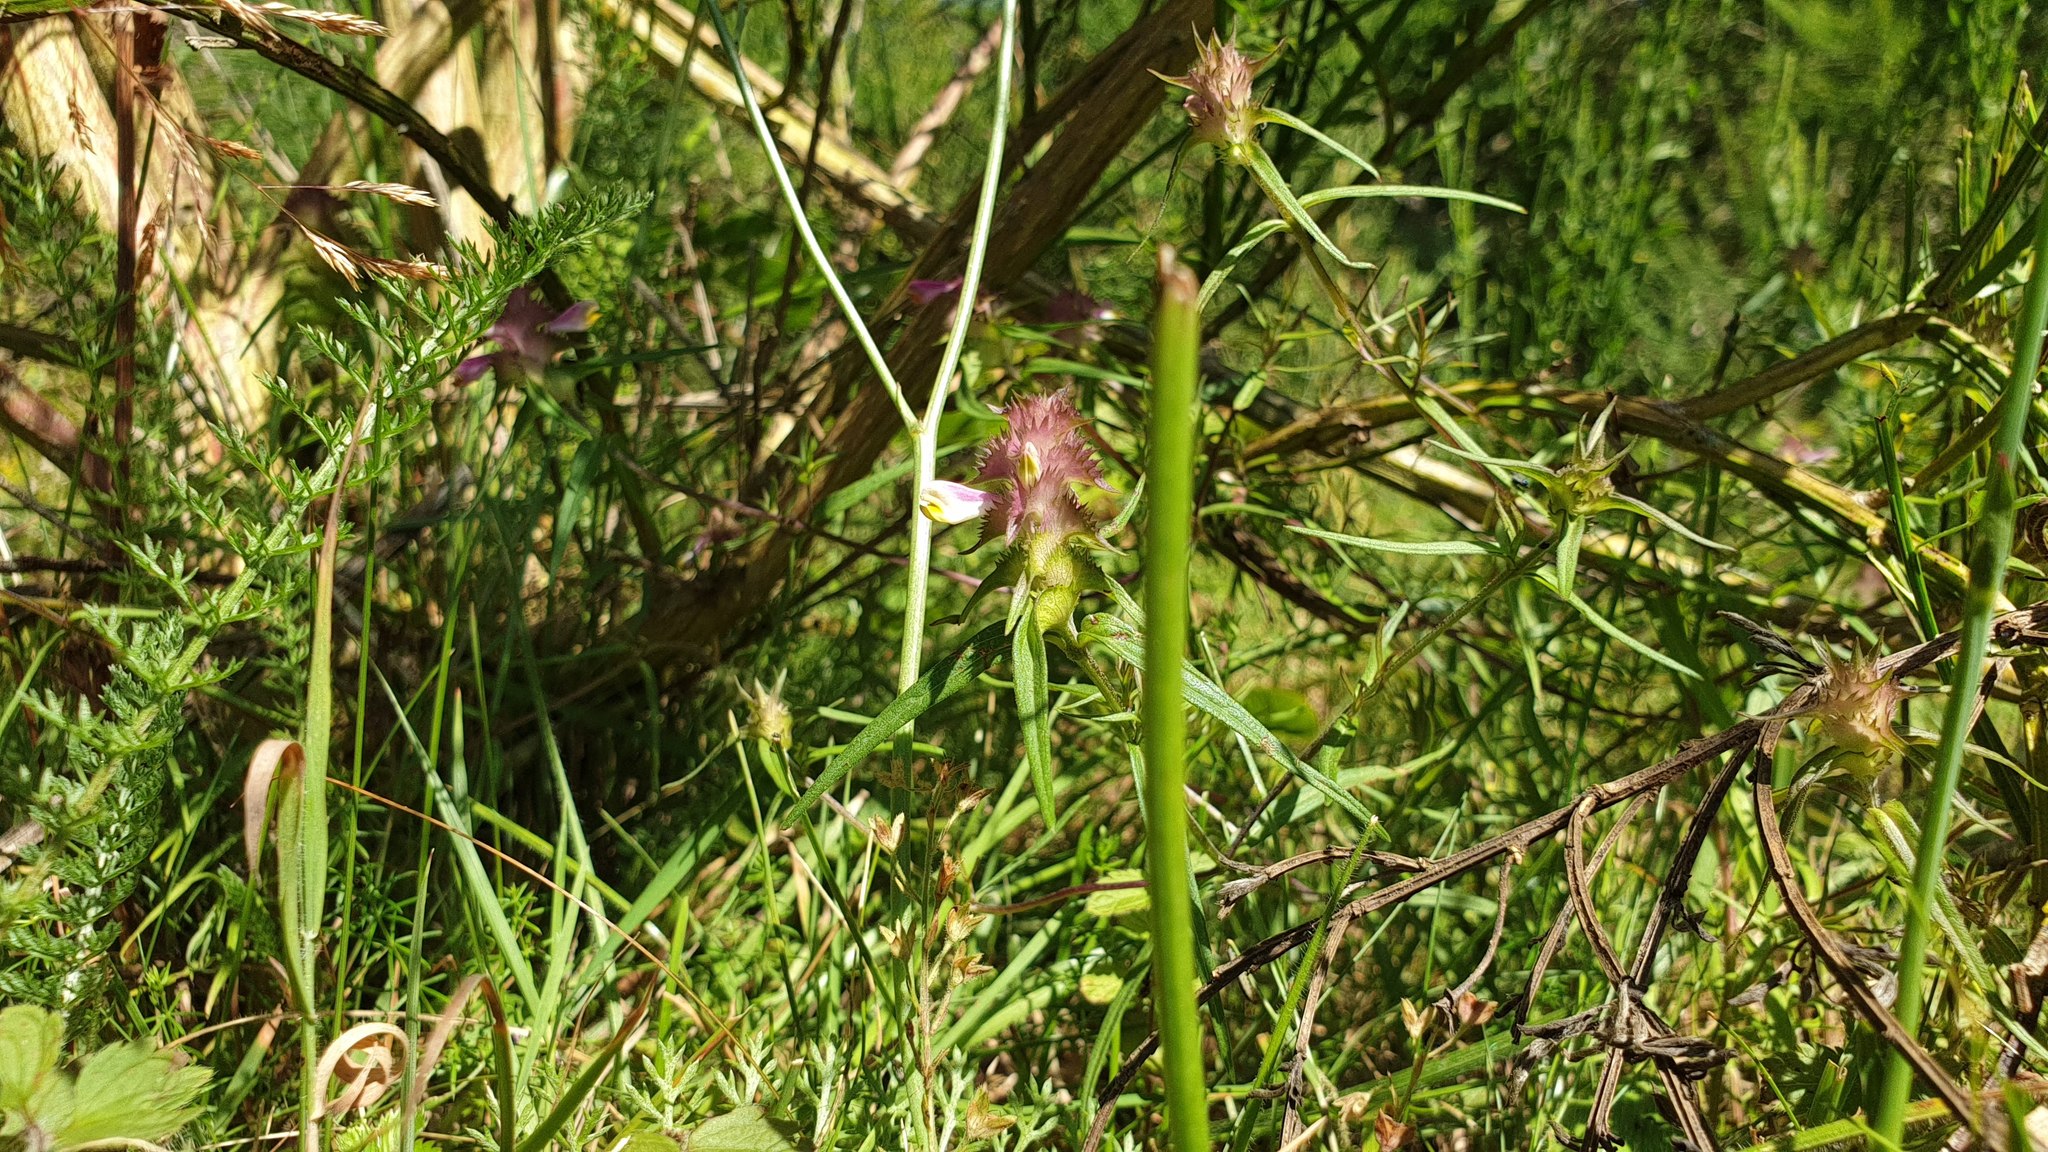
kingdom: Plantae
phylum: Tracheophyta
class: Magnoliopsida
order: Lamiales
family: Orobanchaceae
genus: Melampyrum
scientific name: Melampyrum cristatum
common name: Crested cow-wheat
